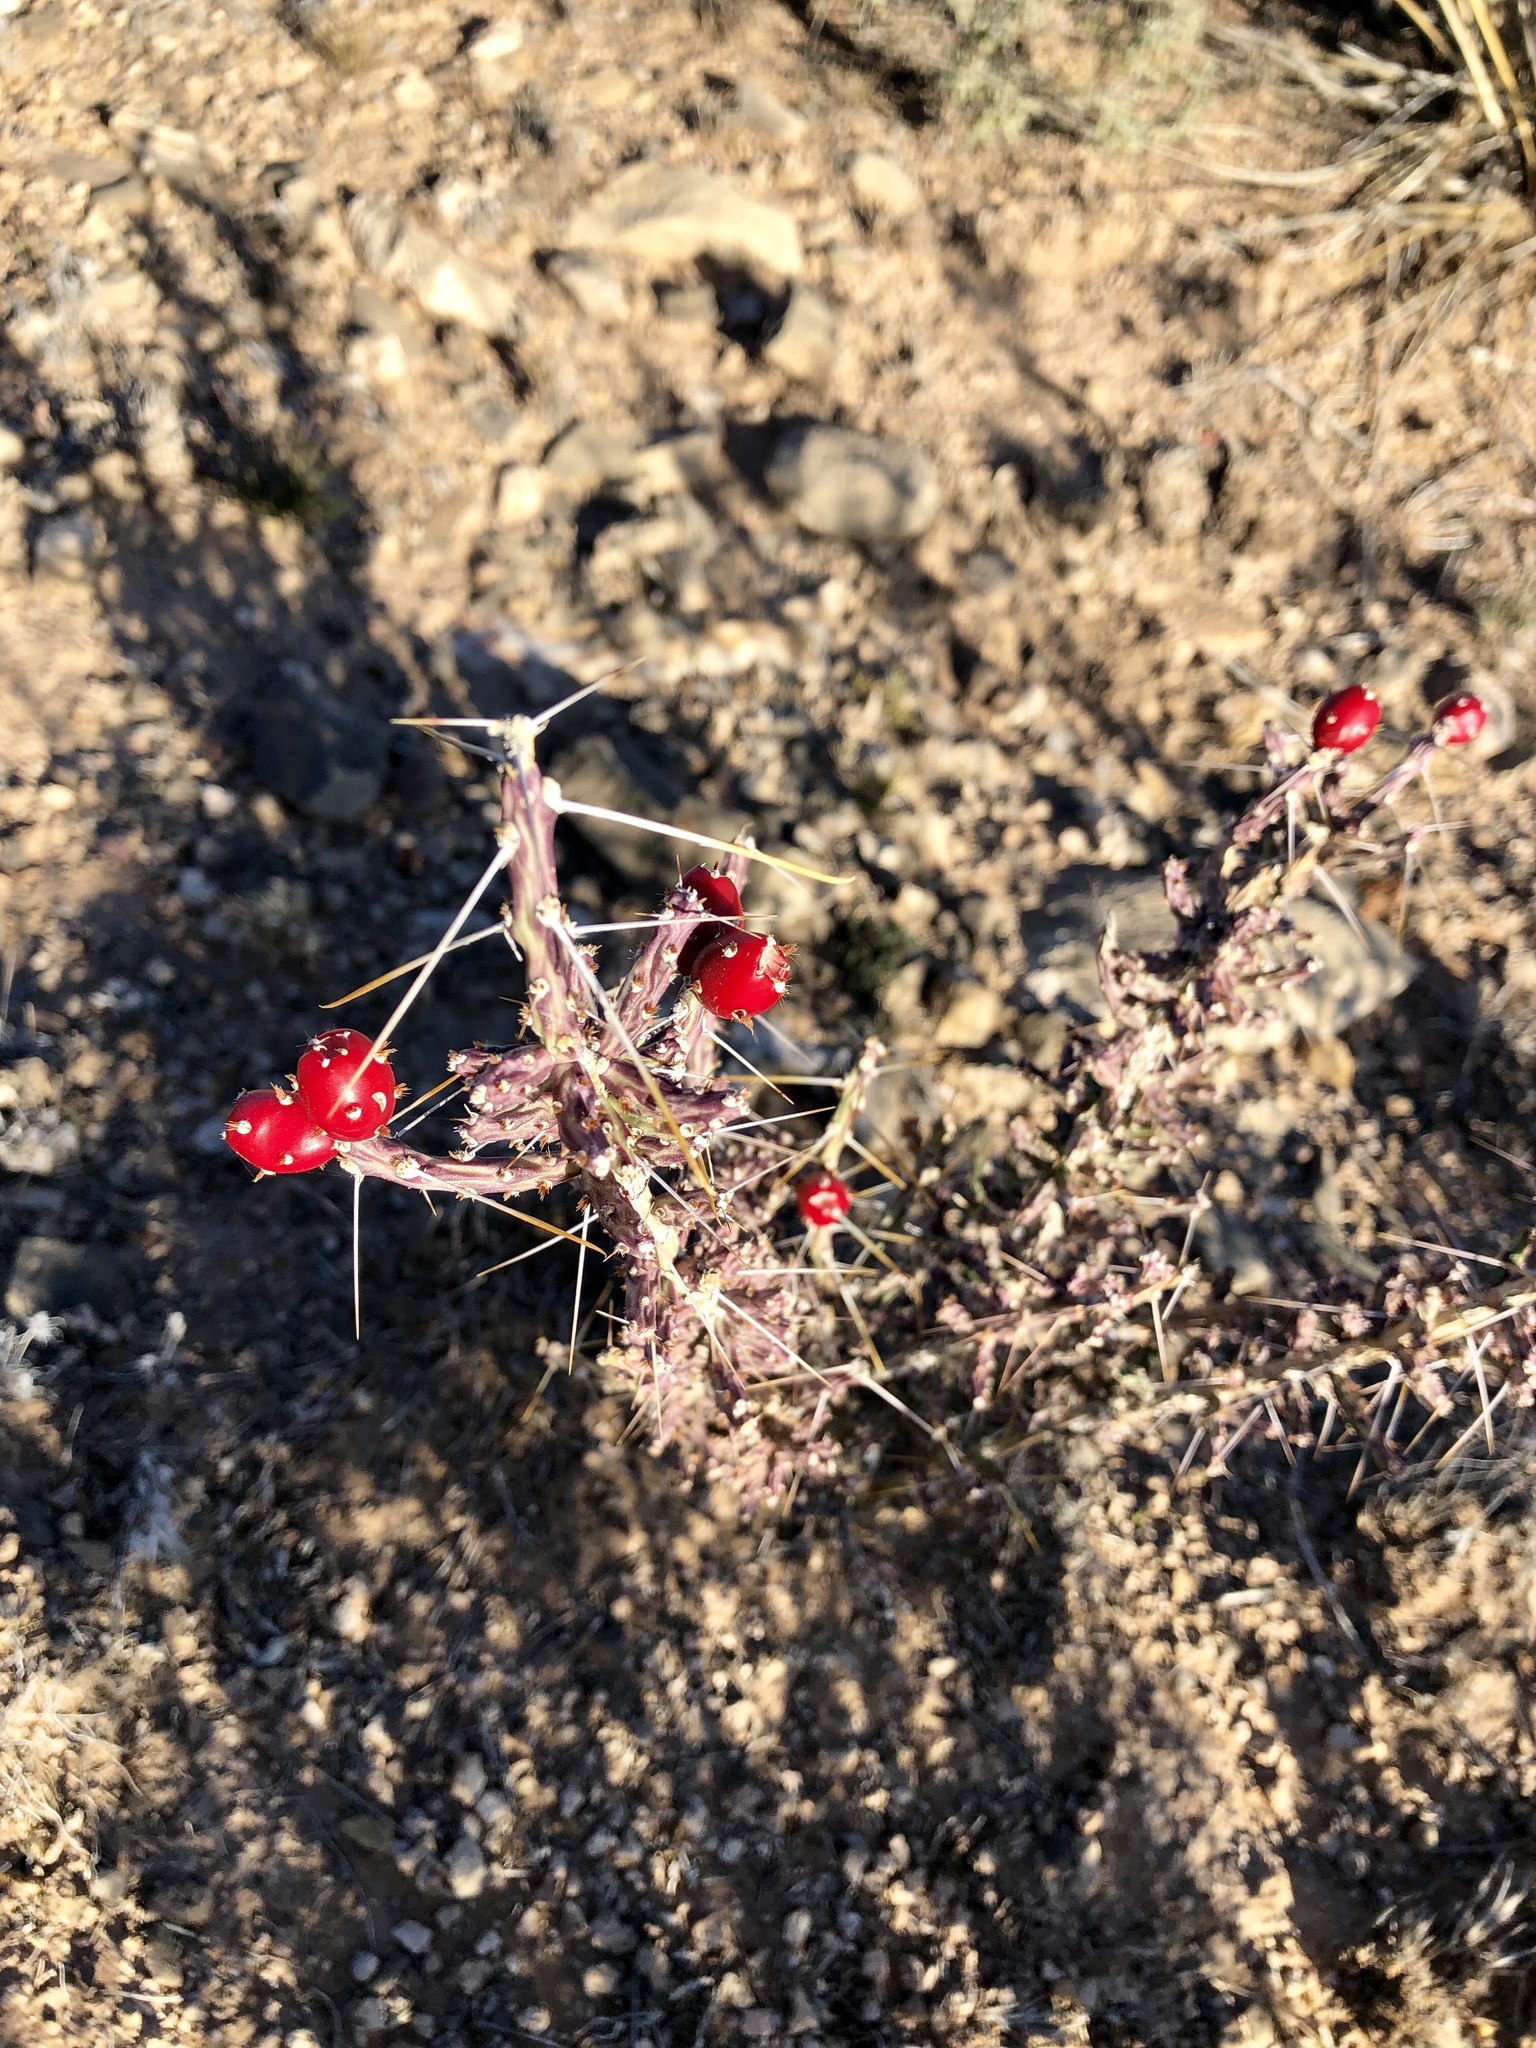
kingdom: Plantae
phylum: Tracheophyta
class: Magnoliopsida
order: Caryophyllales
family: Cactaceae
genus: Cylindropuntia
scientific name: Cylindropuntia leptocaulis
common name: Christmas cactus
